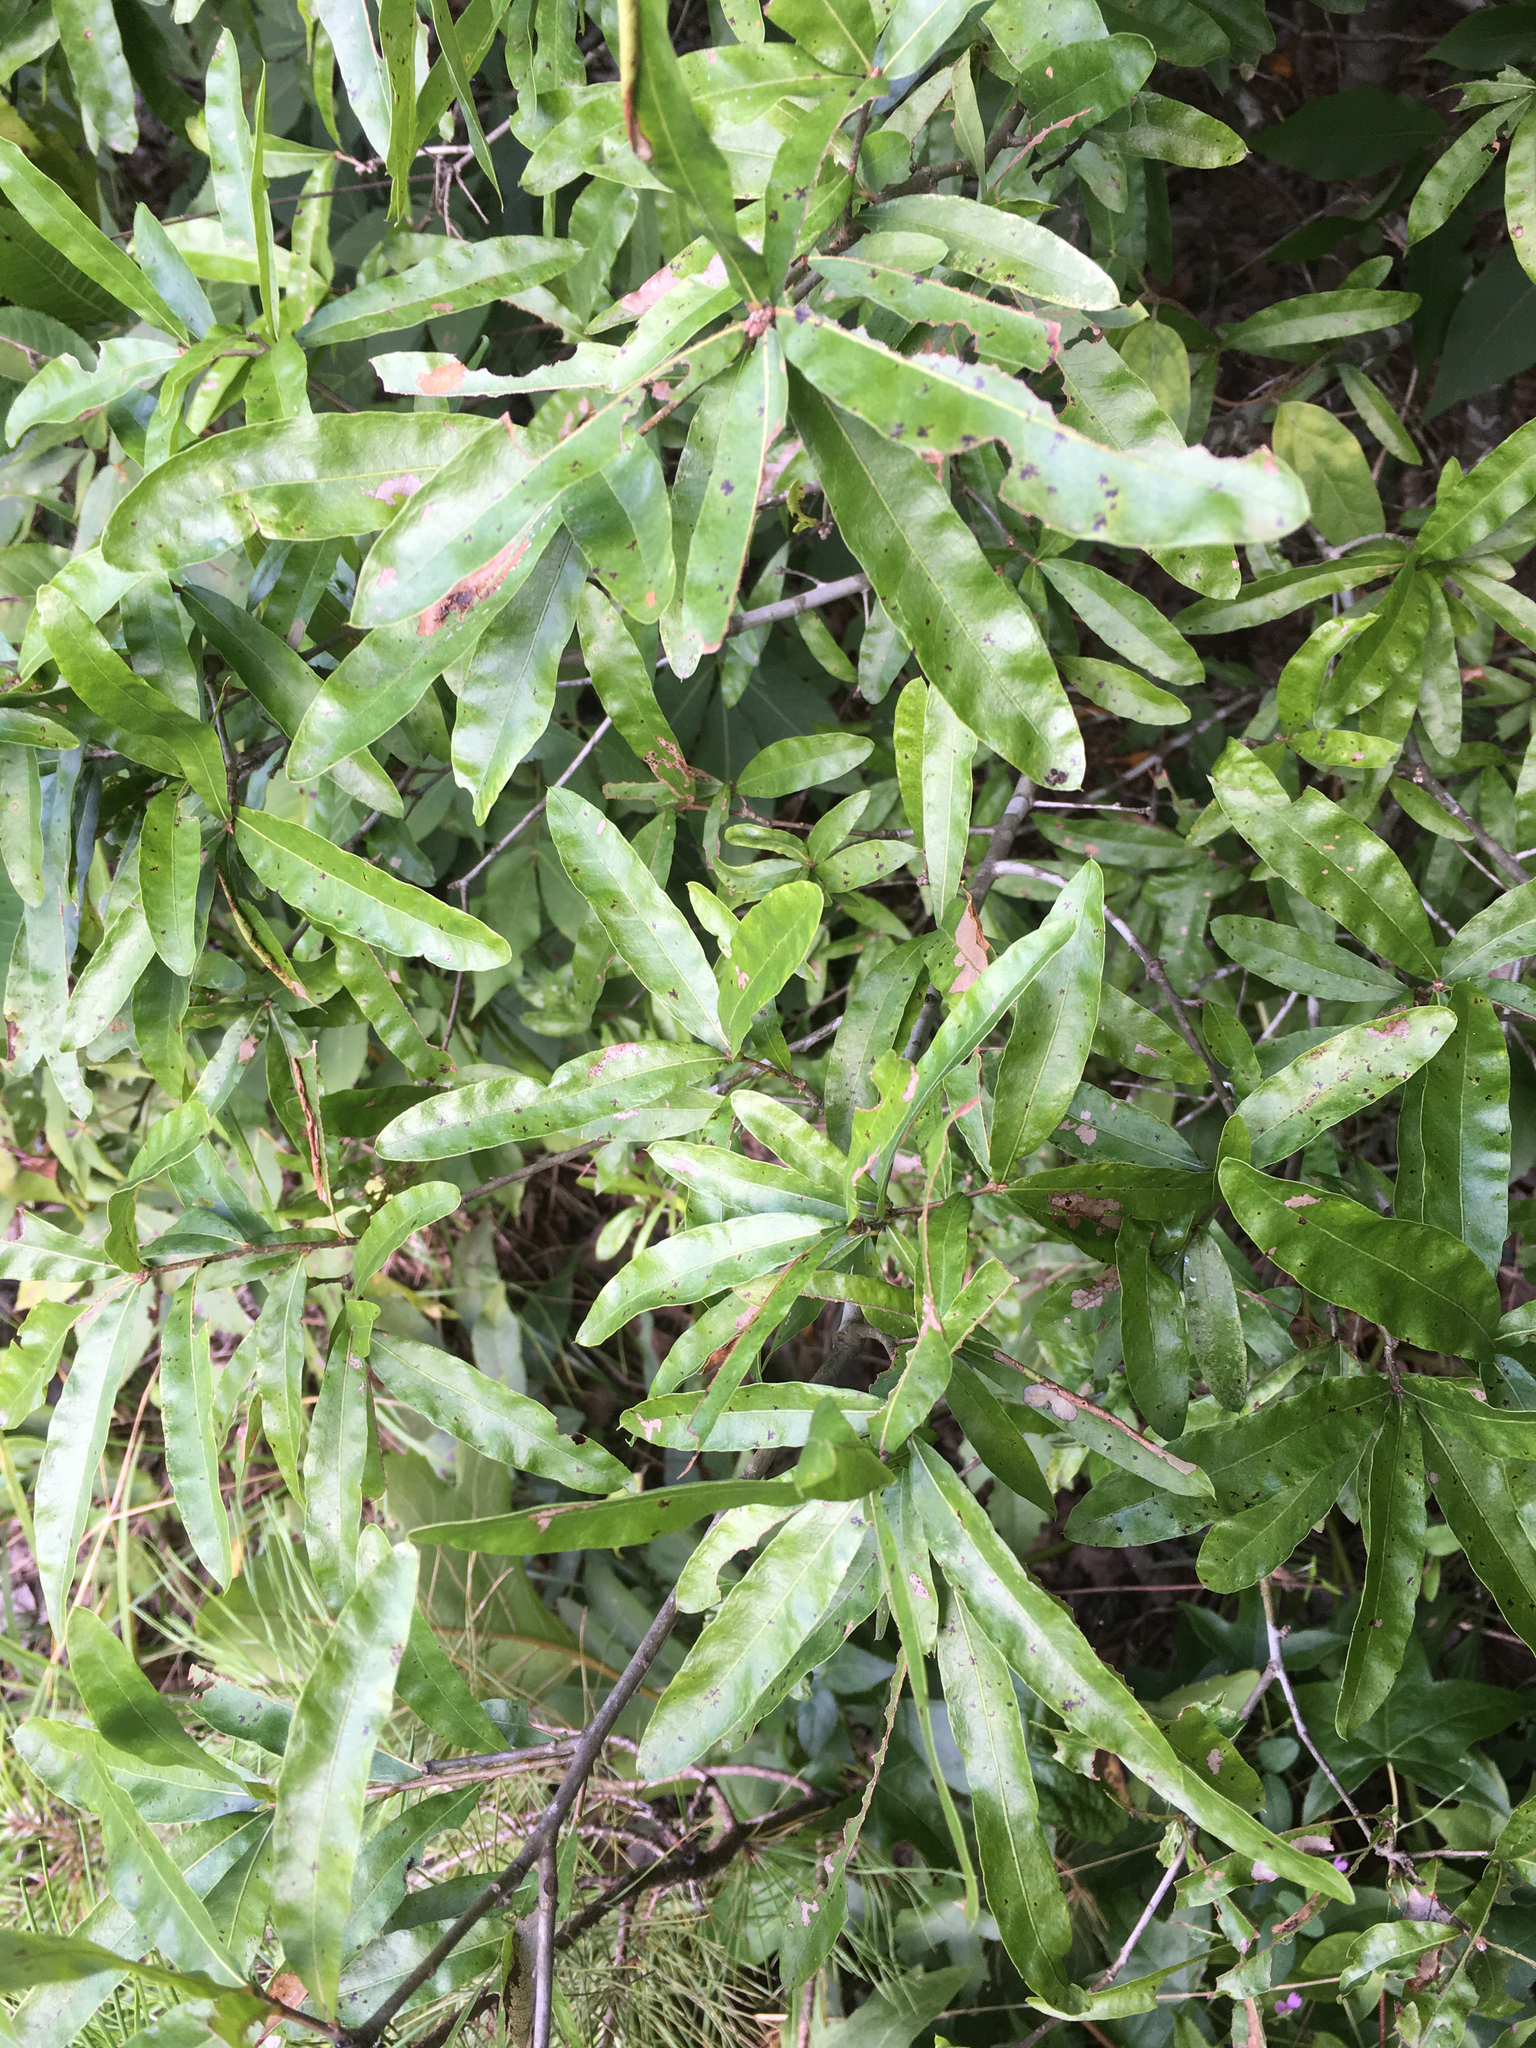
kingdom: Plantae
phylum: Tracheophyta
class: Magnoliopsida
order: Fagales
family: Fagaceae
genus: Quercus
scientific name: Quercus phellos
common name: Willow oak
